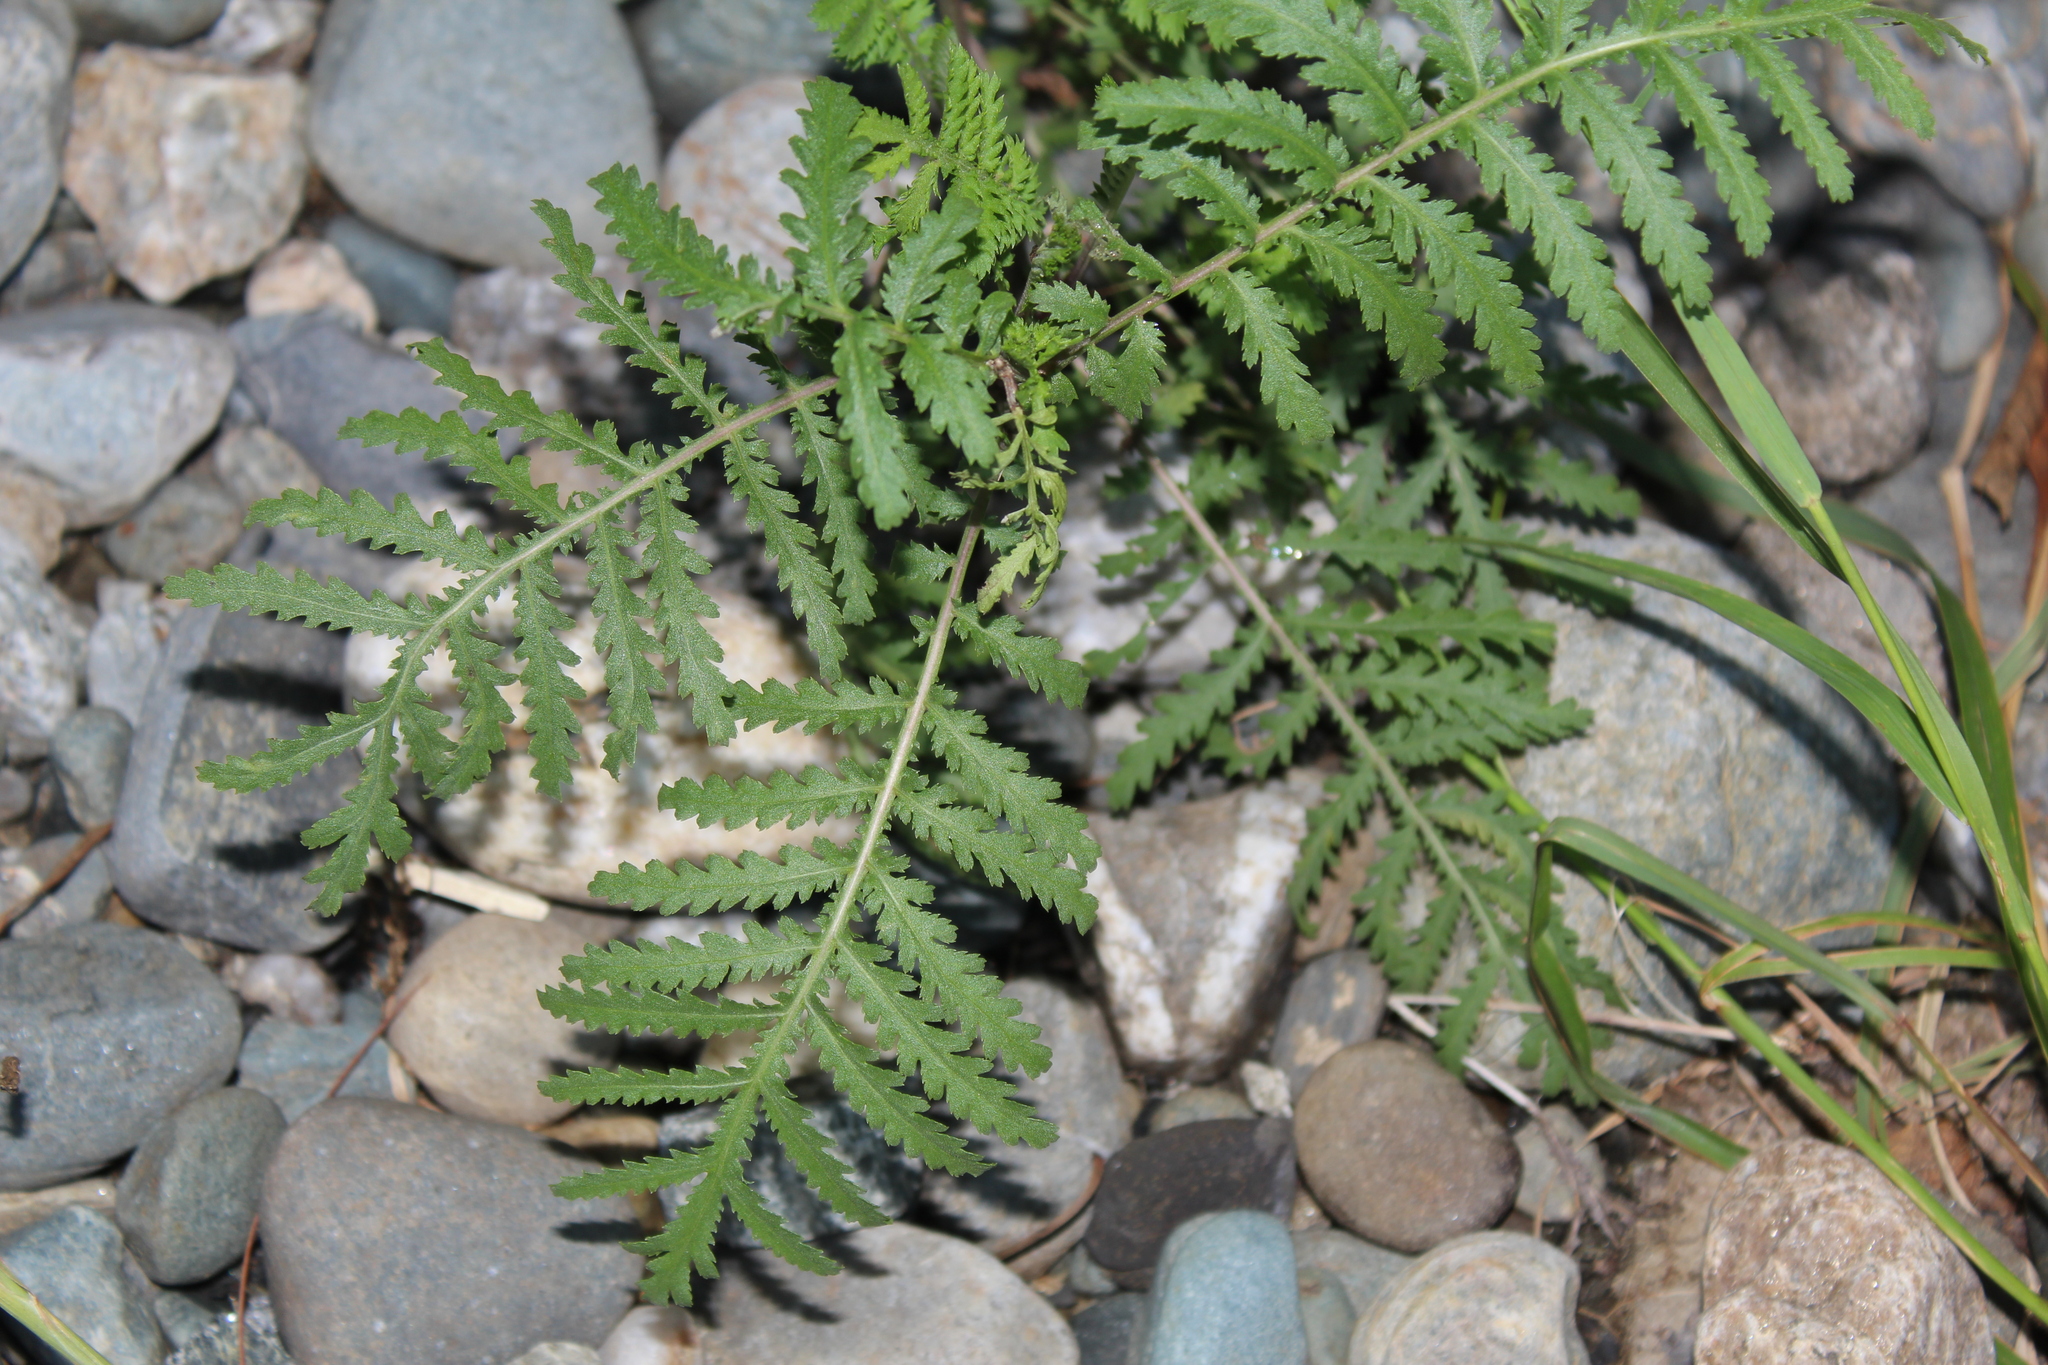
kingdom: Plantae
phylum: Tracheophyta
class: Magnoliopsida
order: Asterales
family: Asteraceae
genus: Tanacetum
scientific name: Tanacetum vulgare
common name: Common tansy
